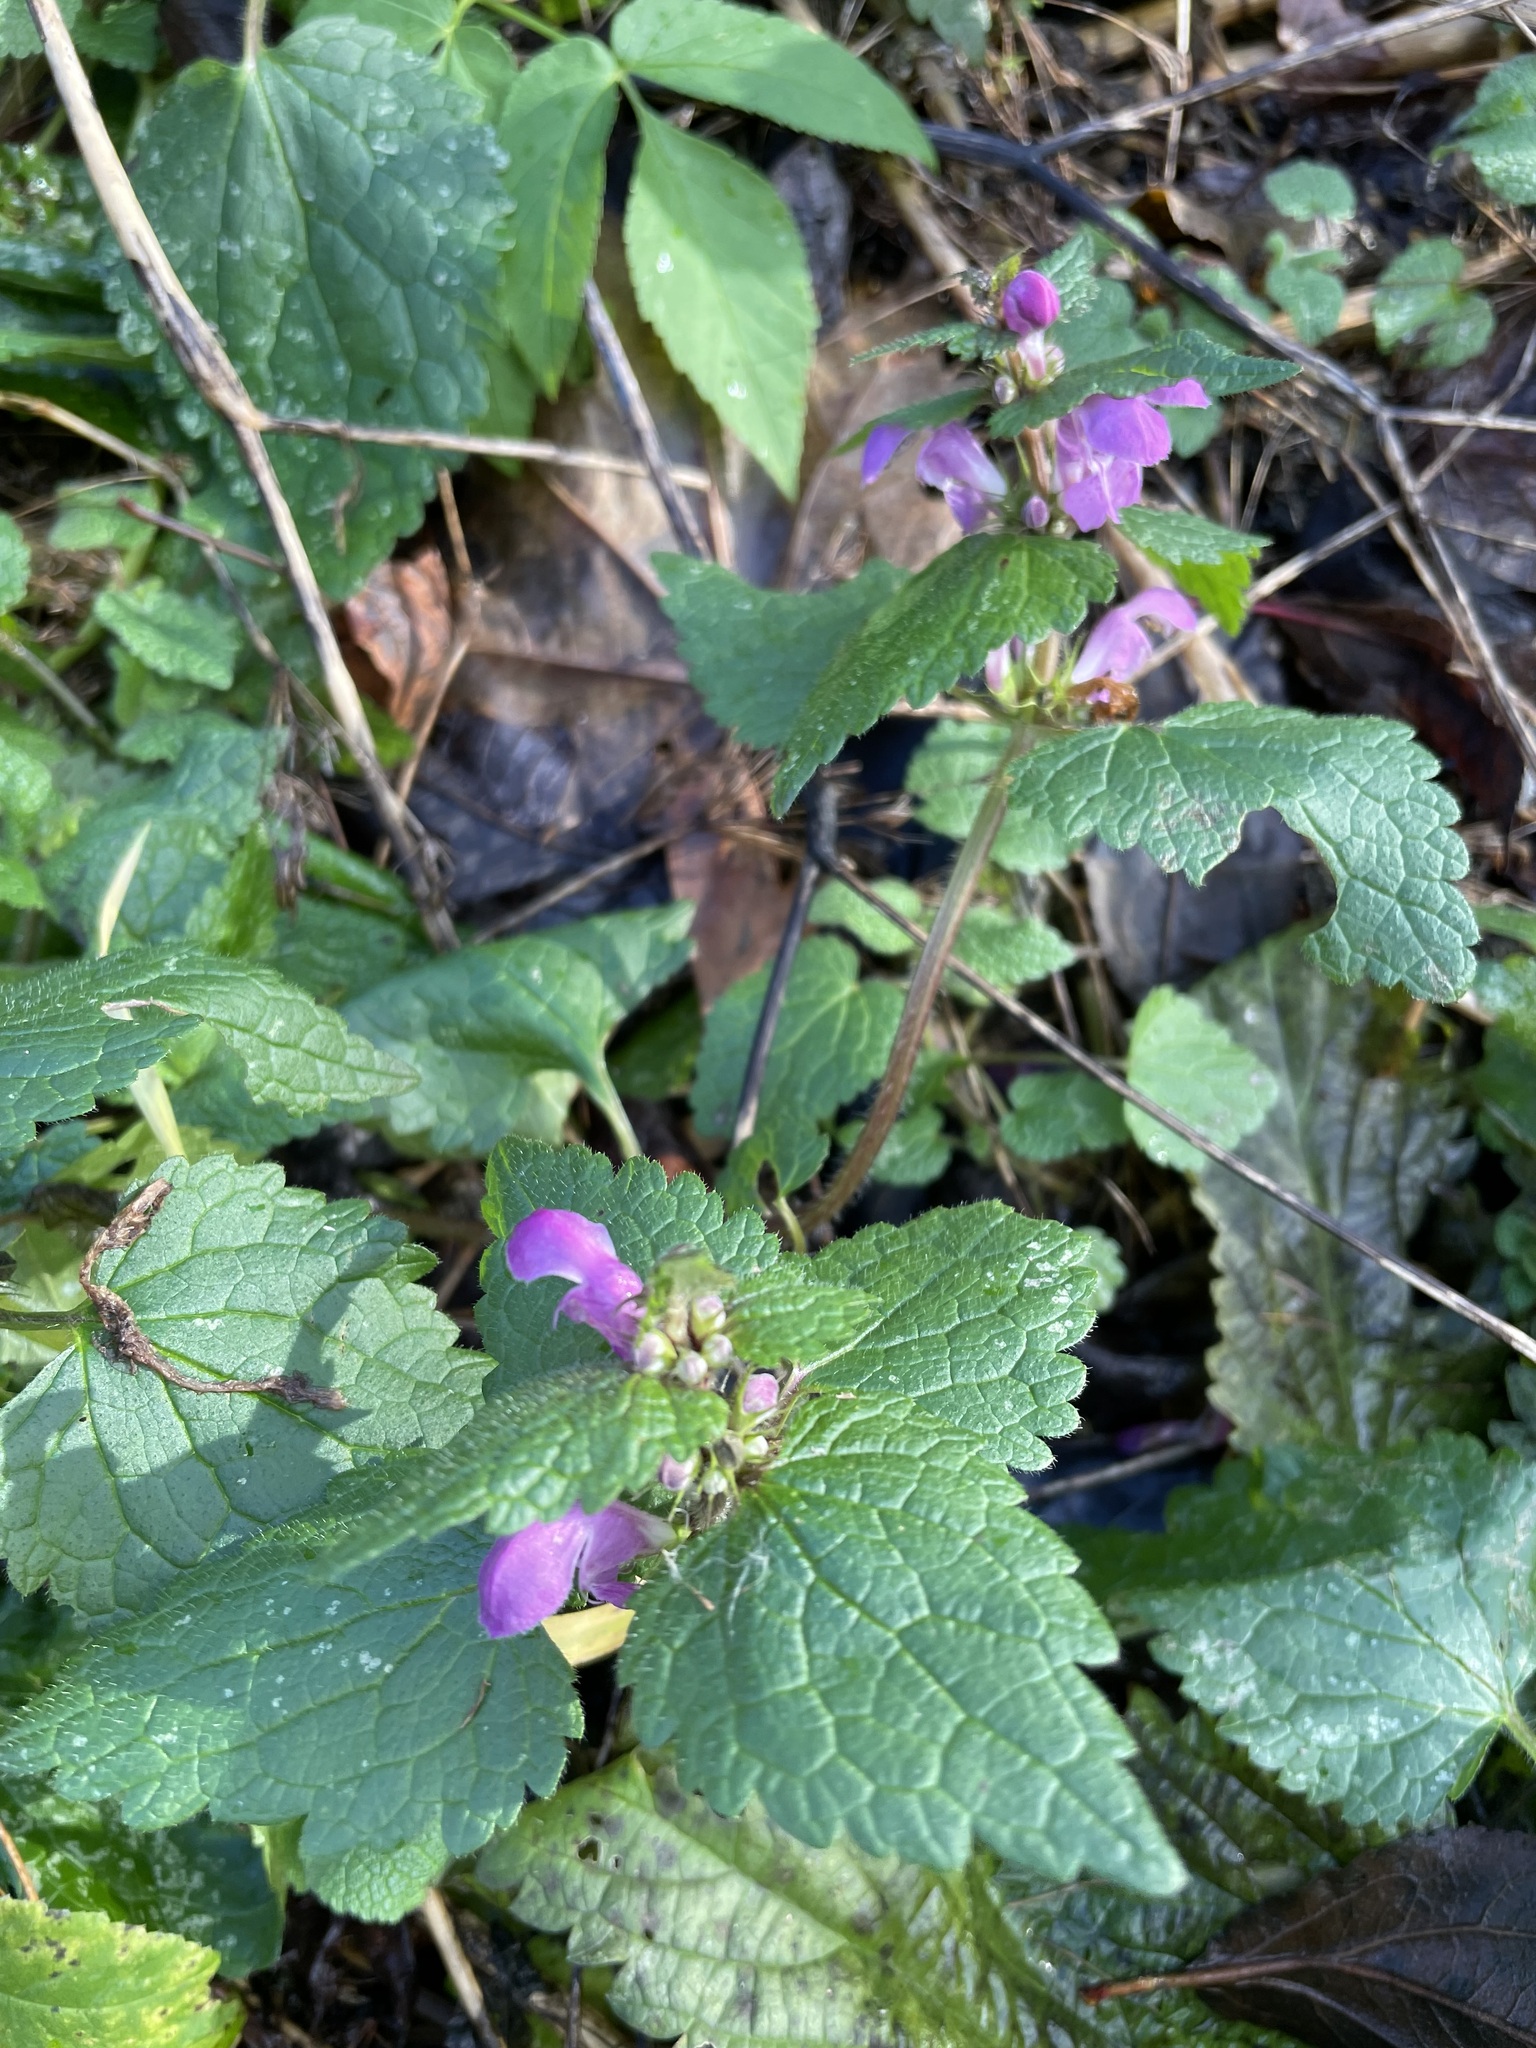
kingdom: Plantae
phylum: Tracheophyta
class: Magnoliopsida
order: Lamiales
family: Lamiaceae
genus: Lamium
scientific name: Lamium maculatum
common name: Spotted dead-nettle
